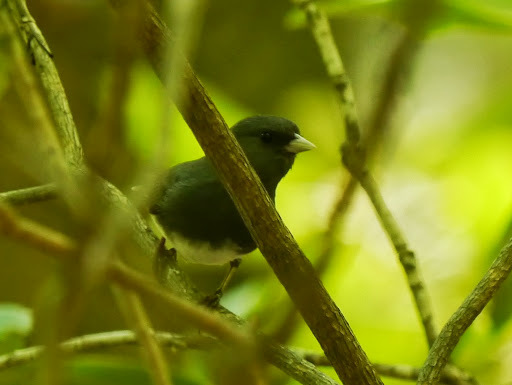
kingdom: Animalia
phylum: Chordata
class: Aves
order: Passeriformes
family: Passerellidae
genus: Junco
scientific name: Junco hyemalis
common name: Dark-eyed junco
